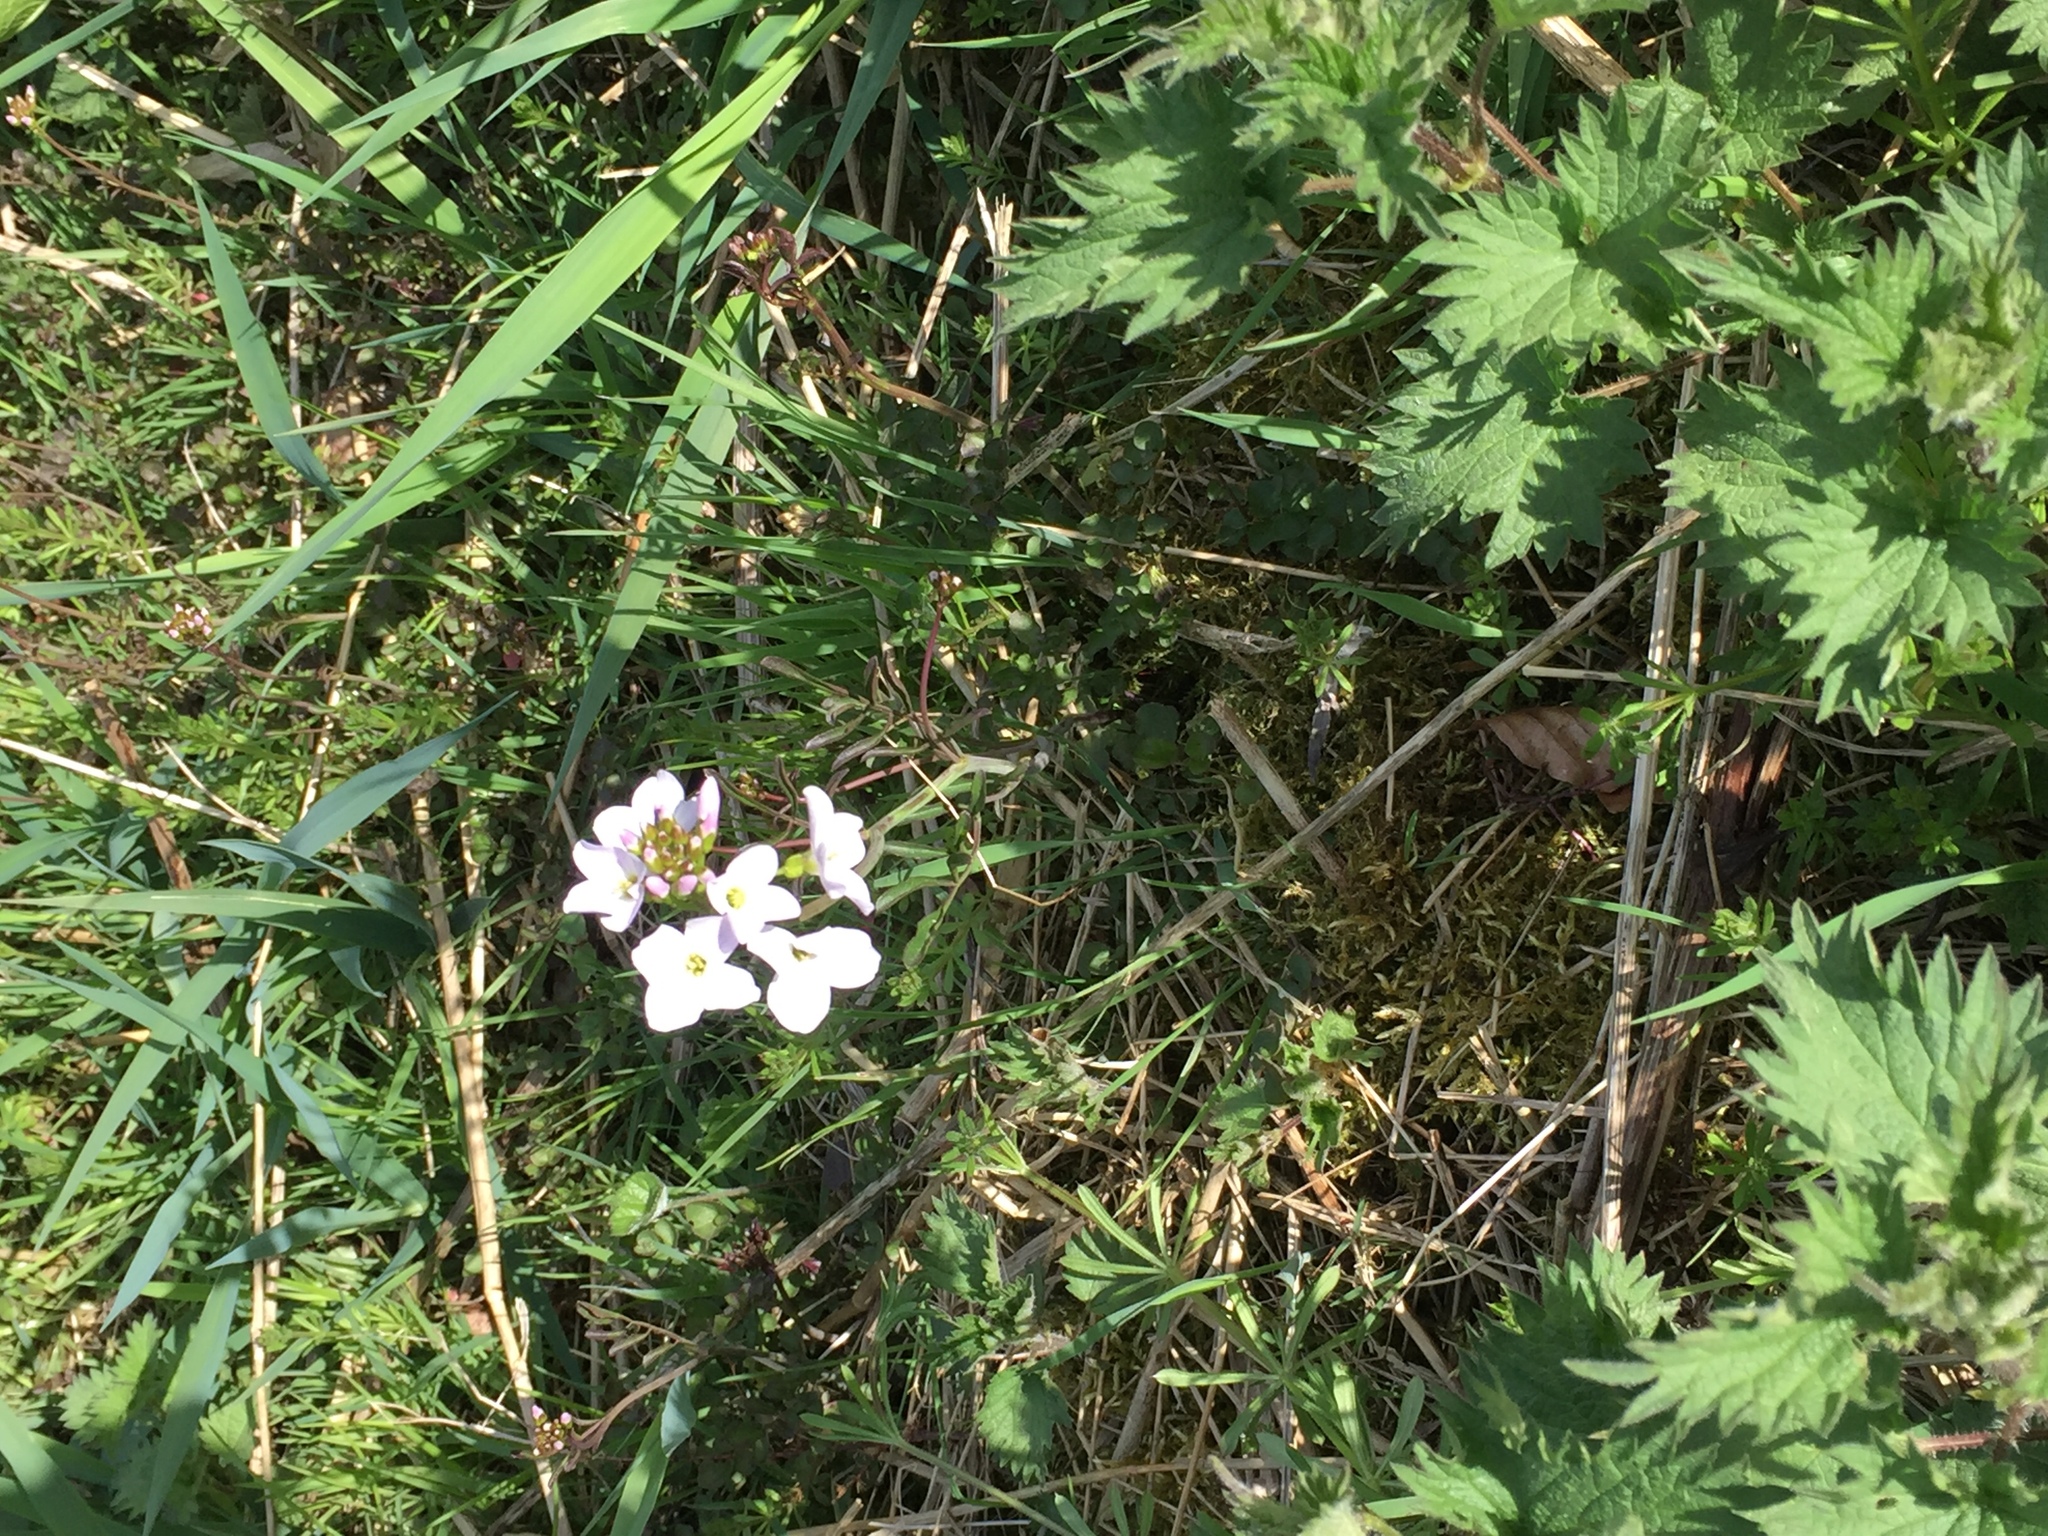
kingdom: Plantae
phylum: Tracheophyta
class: Magnoliopsida
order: Brassicales
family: Brassicaceae
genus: Cardamine
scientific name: Cardamine pratensis
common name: Cuckoo flower
